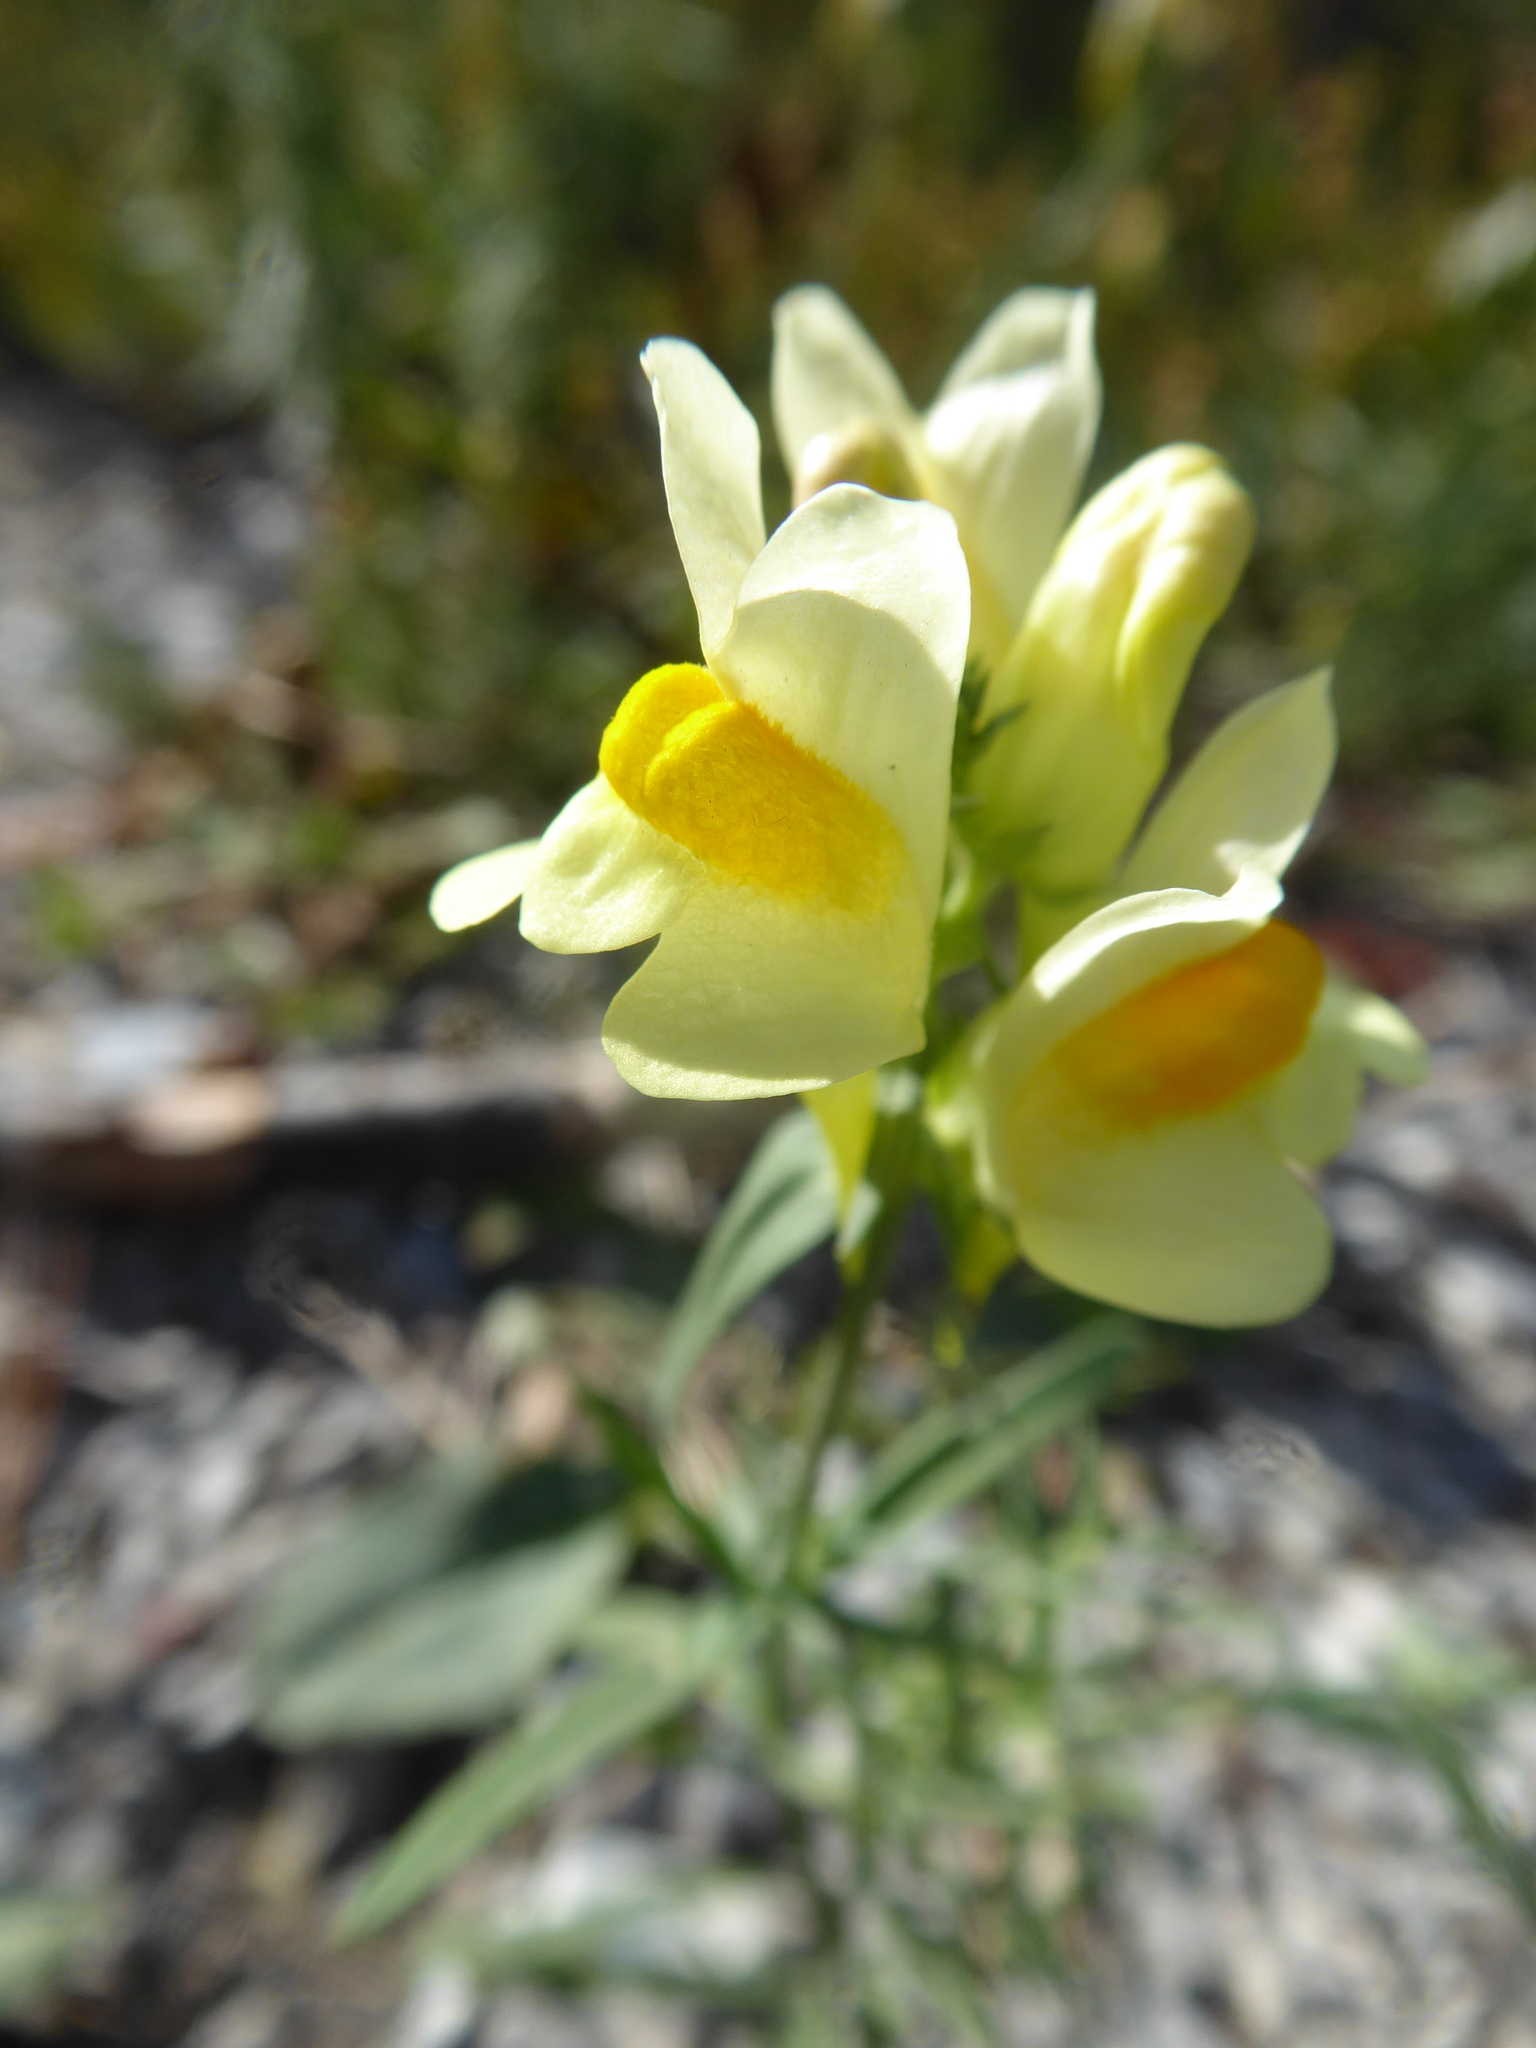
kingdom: Plantae
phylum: Tracheophyta
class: Magnoliopsida
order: Lamiales
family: Plantaginaceae
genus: Linaria
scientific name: Linaria vulgaris
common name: Butter and eggs
